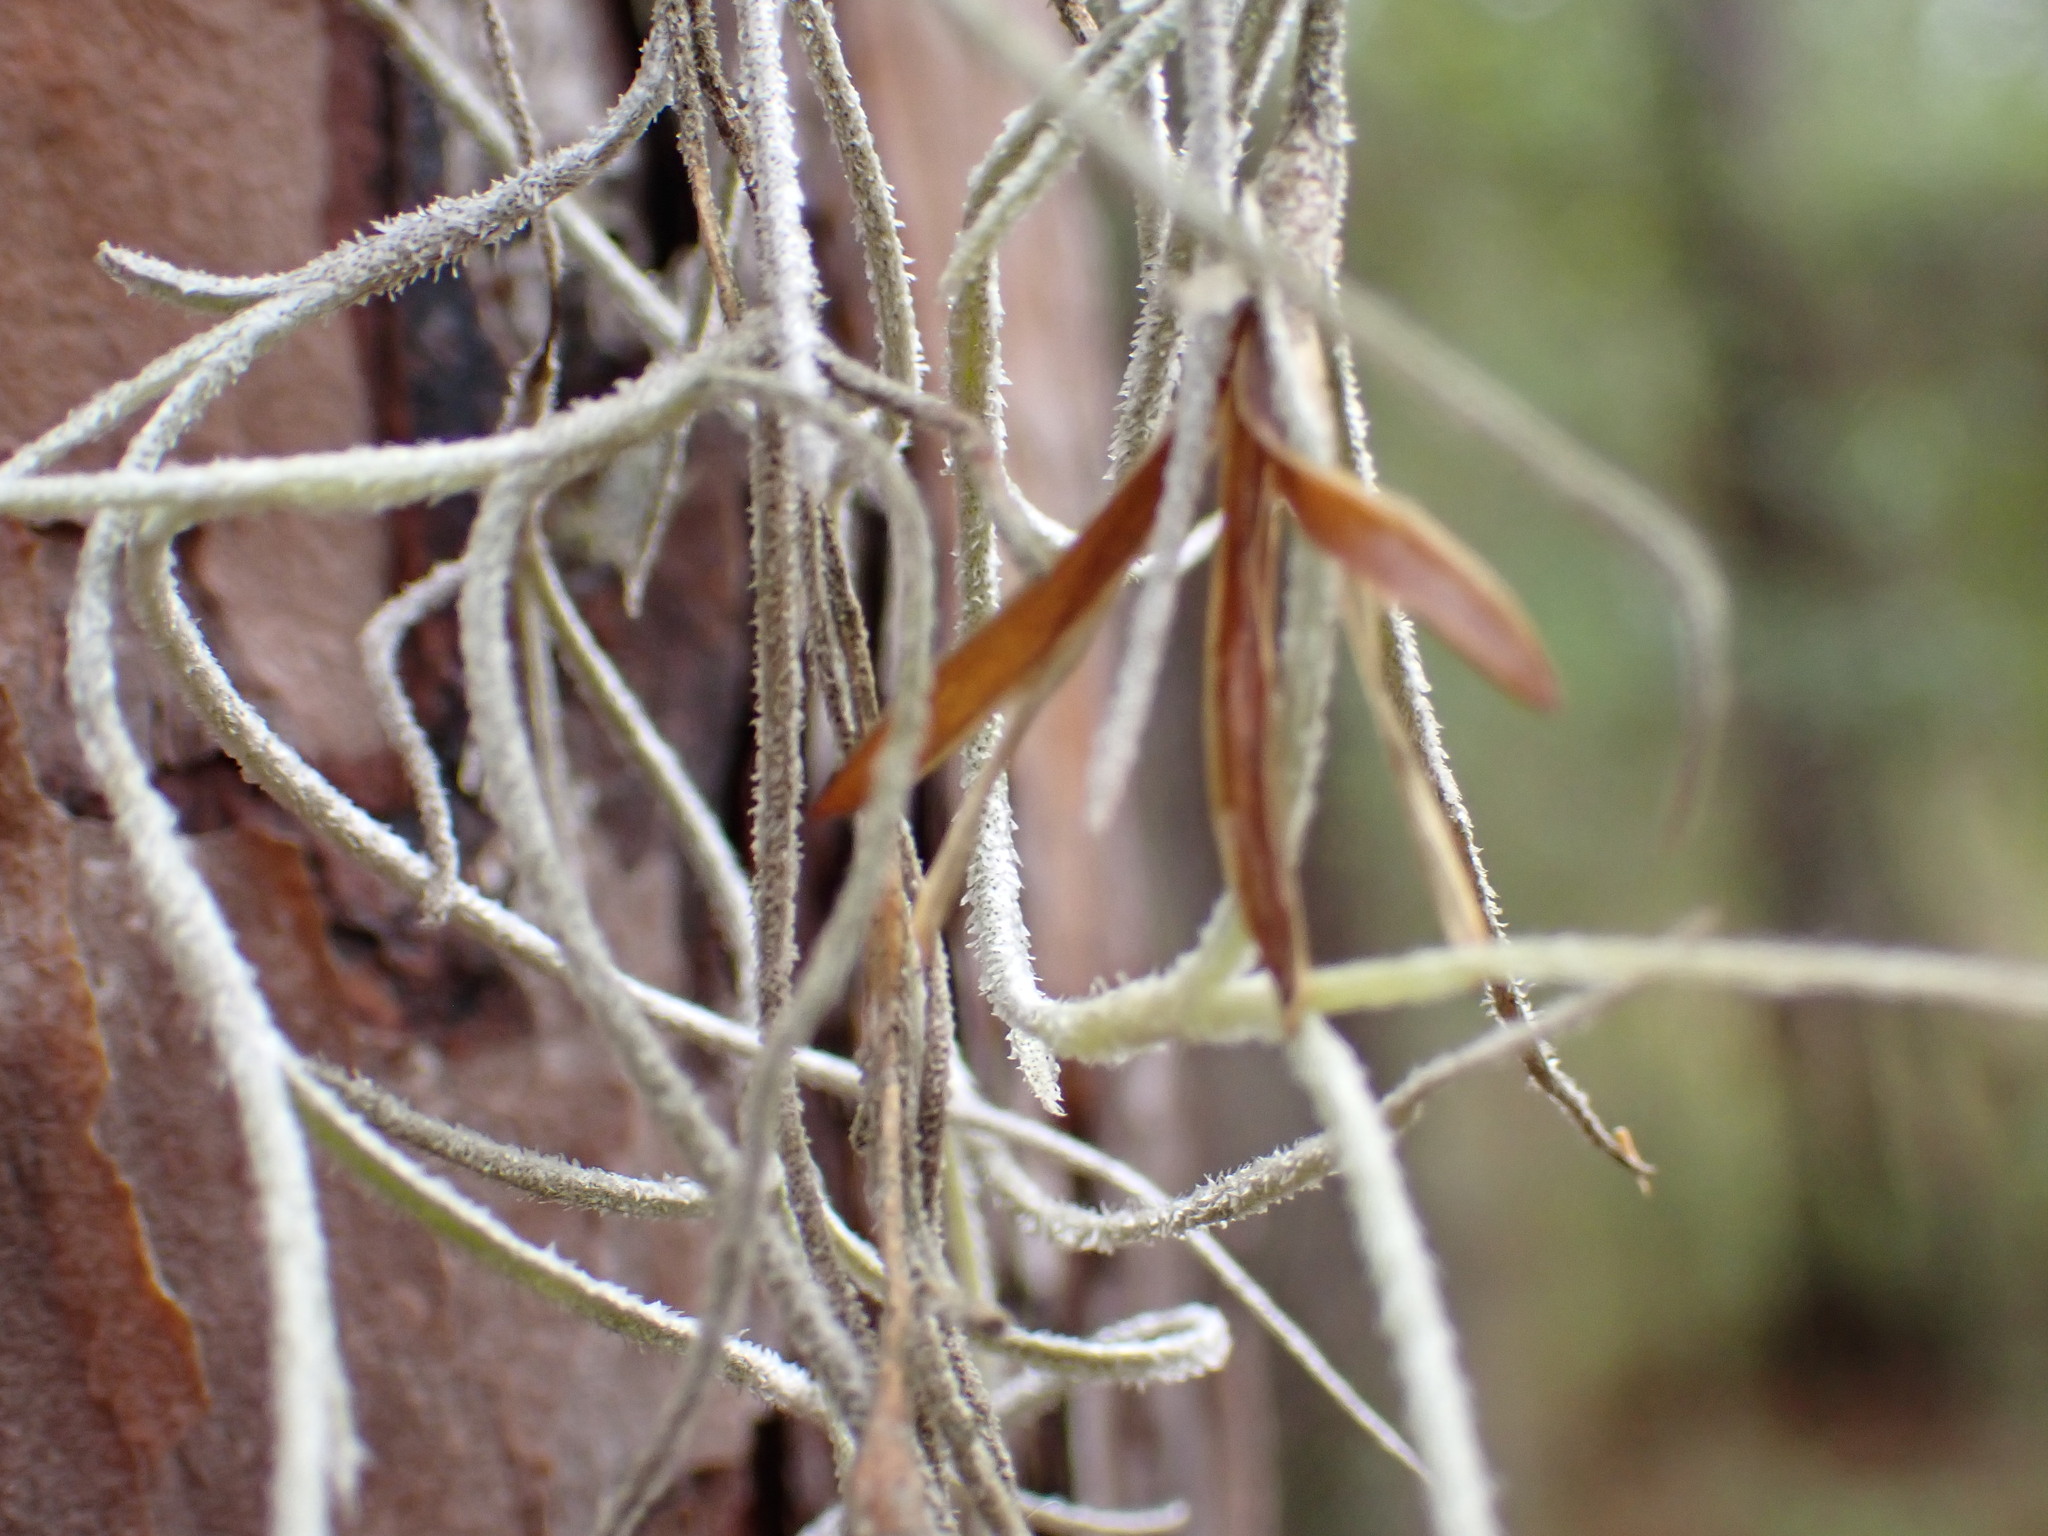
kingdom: Plantae
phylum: Tracheophyta
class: Liliopsida
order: Poales
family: Bromeliaceae
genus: Tillandsia
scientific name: Tillandsia usneoides
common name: Spanish moss
